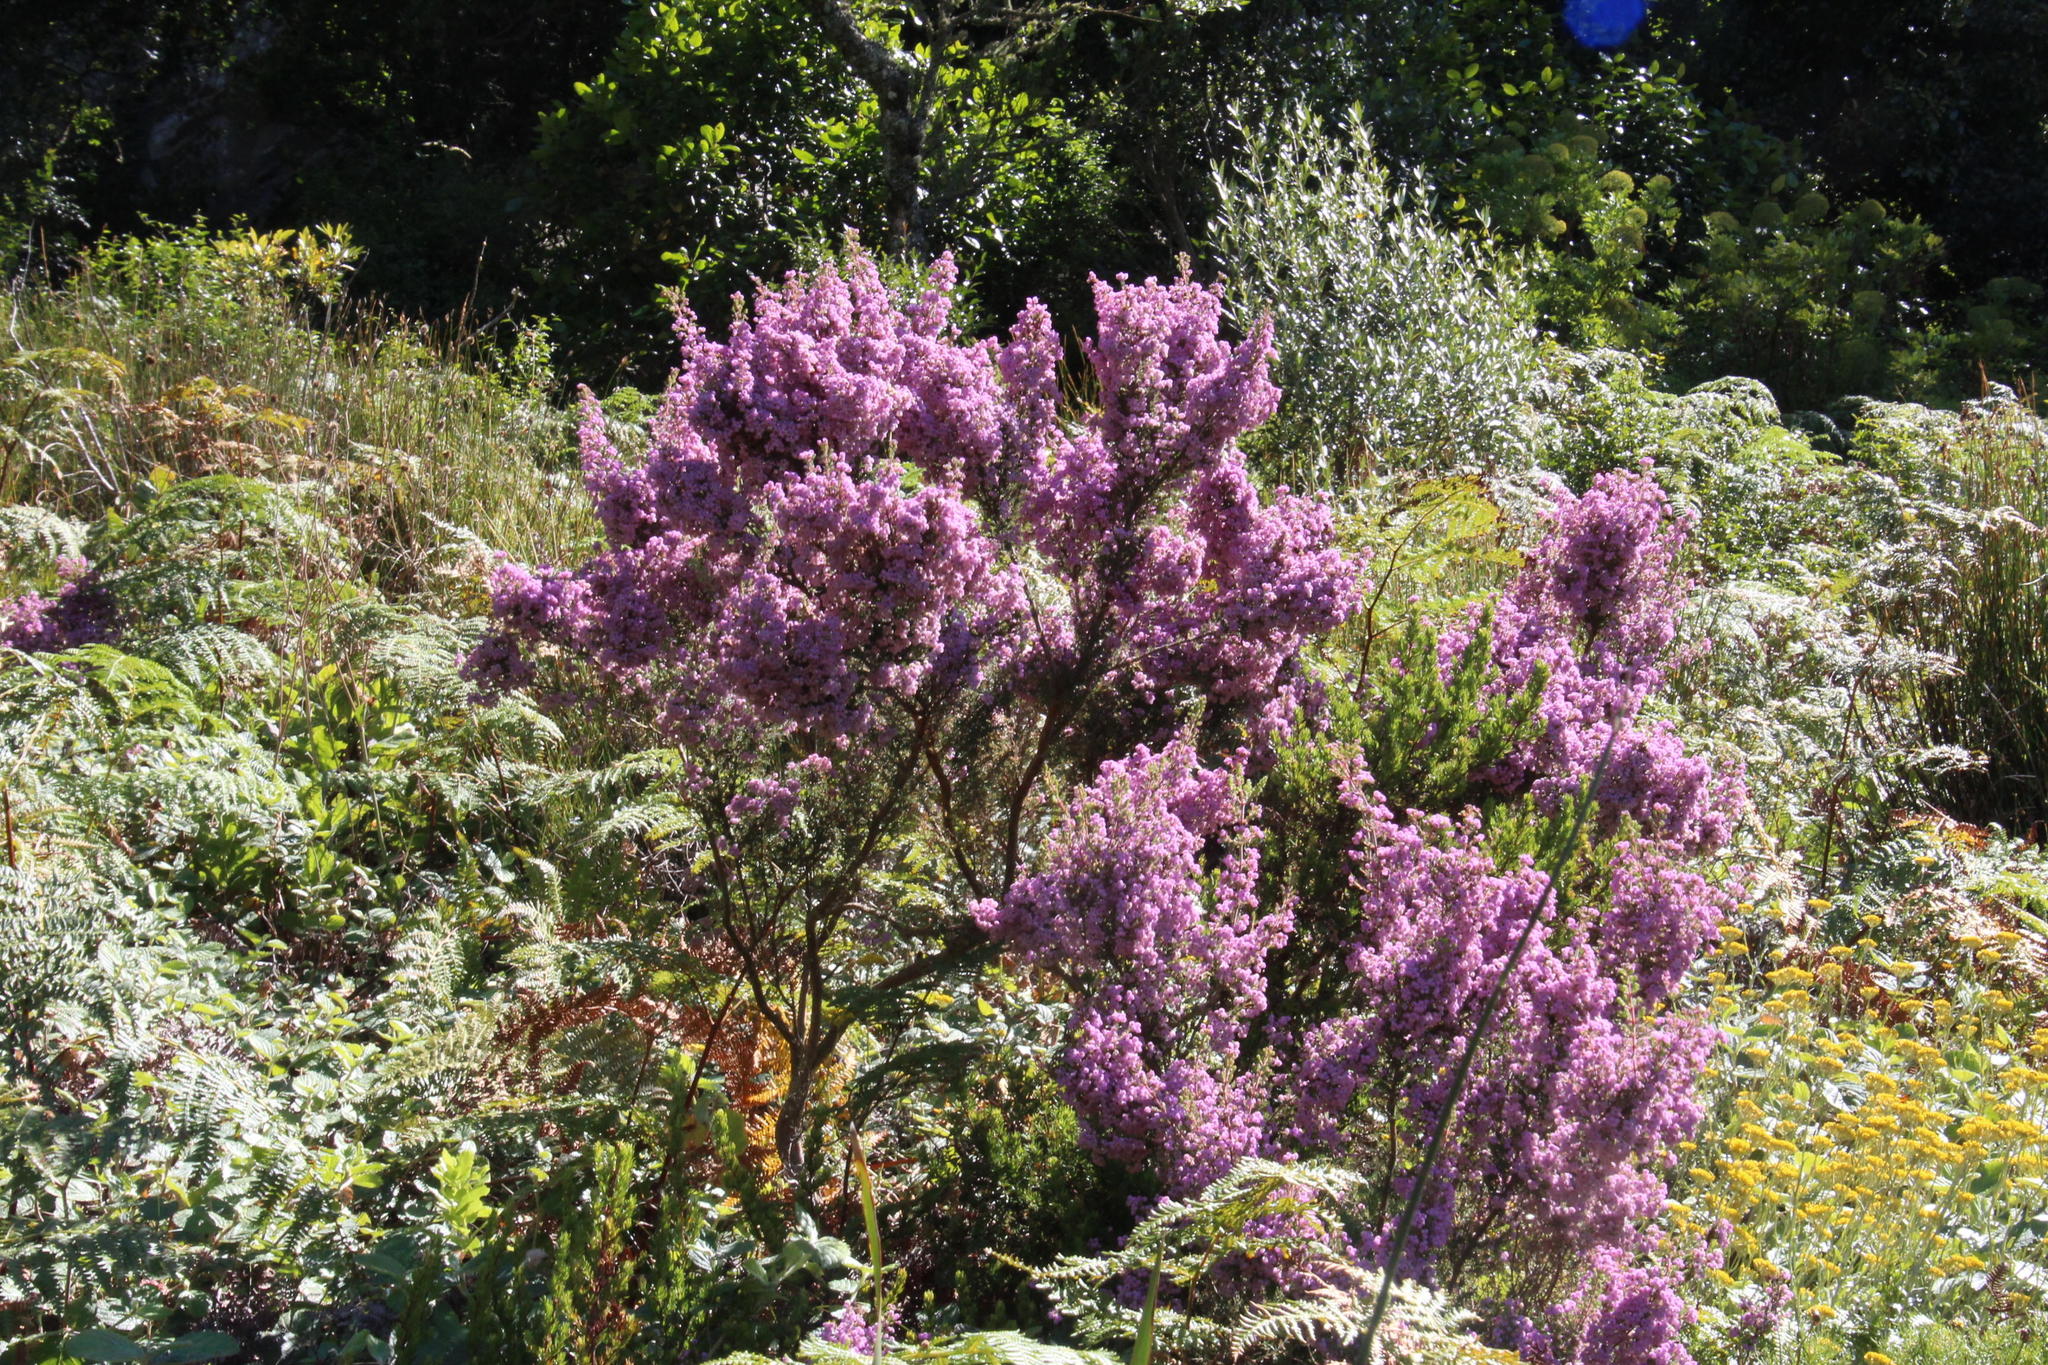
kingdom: Plantae
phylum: Tracheophyta
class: Magnoliopsida
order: Ericales
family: Ericaceae
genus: Erica
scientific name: Erica hirtiflora
